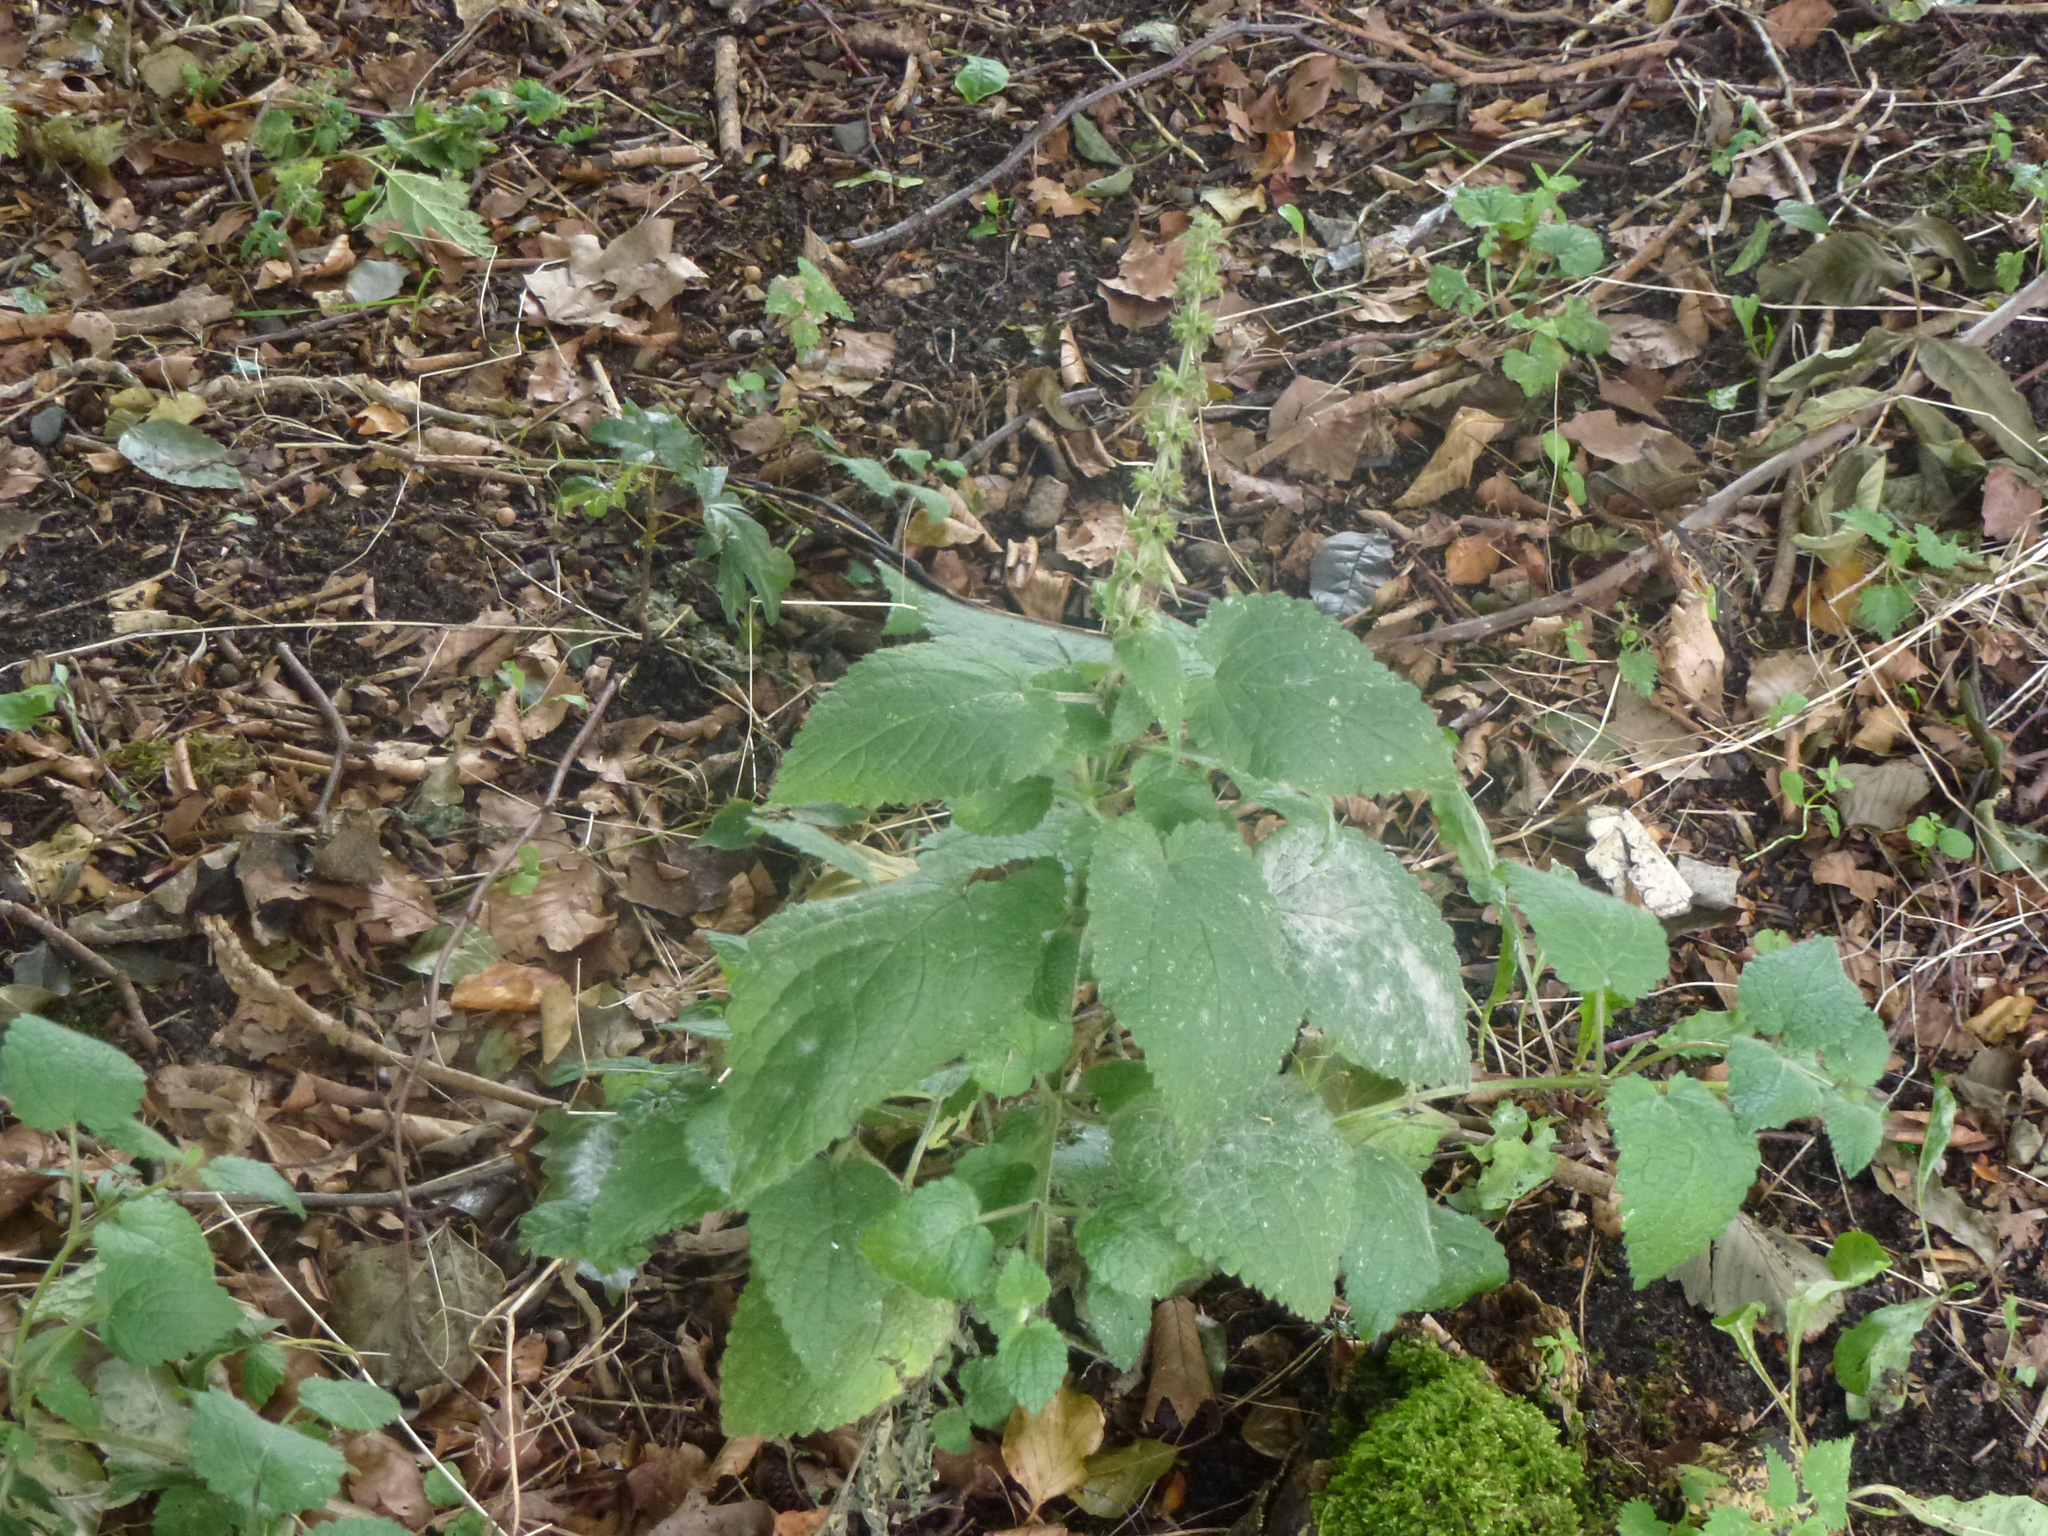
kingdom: Plantae
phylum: Tracheophyta
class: Magnoliopsida
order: Lamiales
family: Lamiaceae
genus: Stachys
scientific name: Stachys sylvatica
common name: Hedge woundwort
